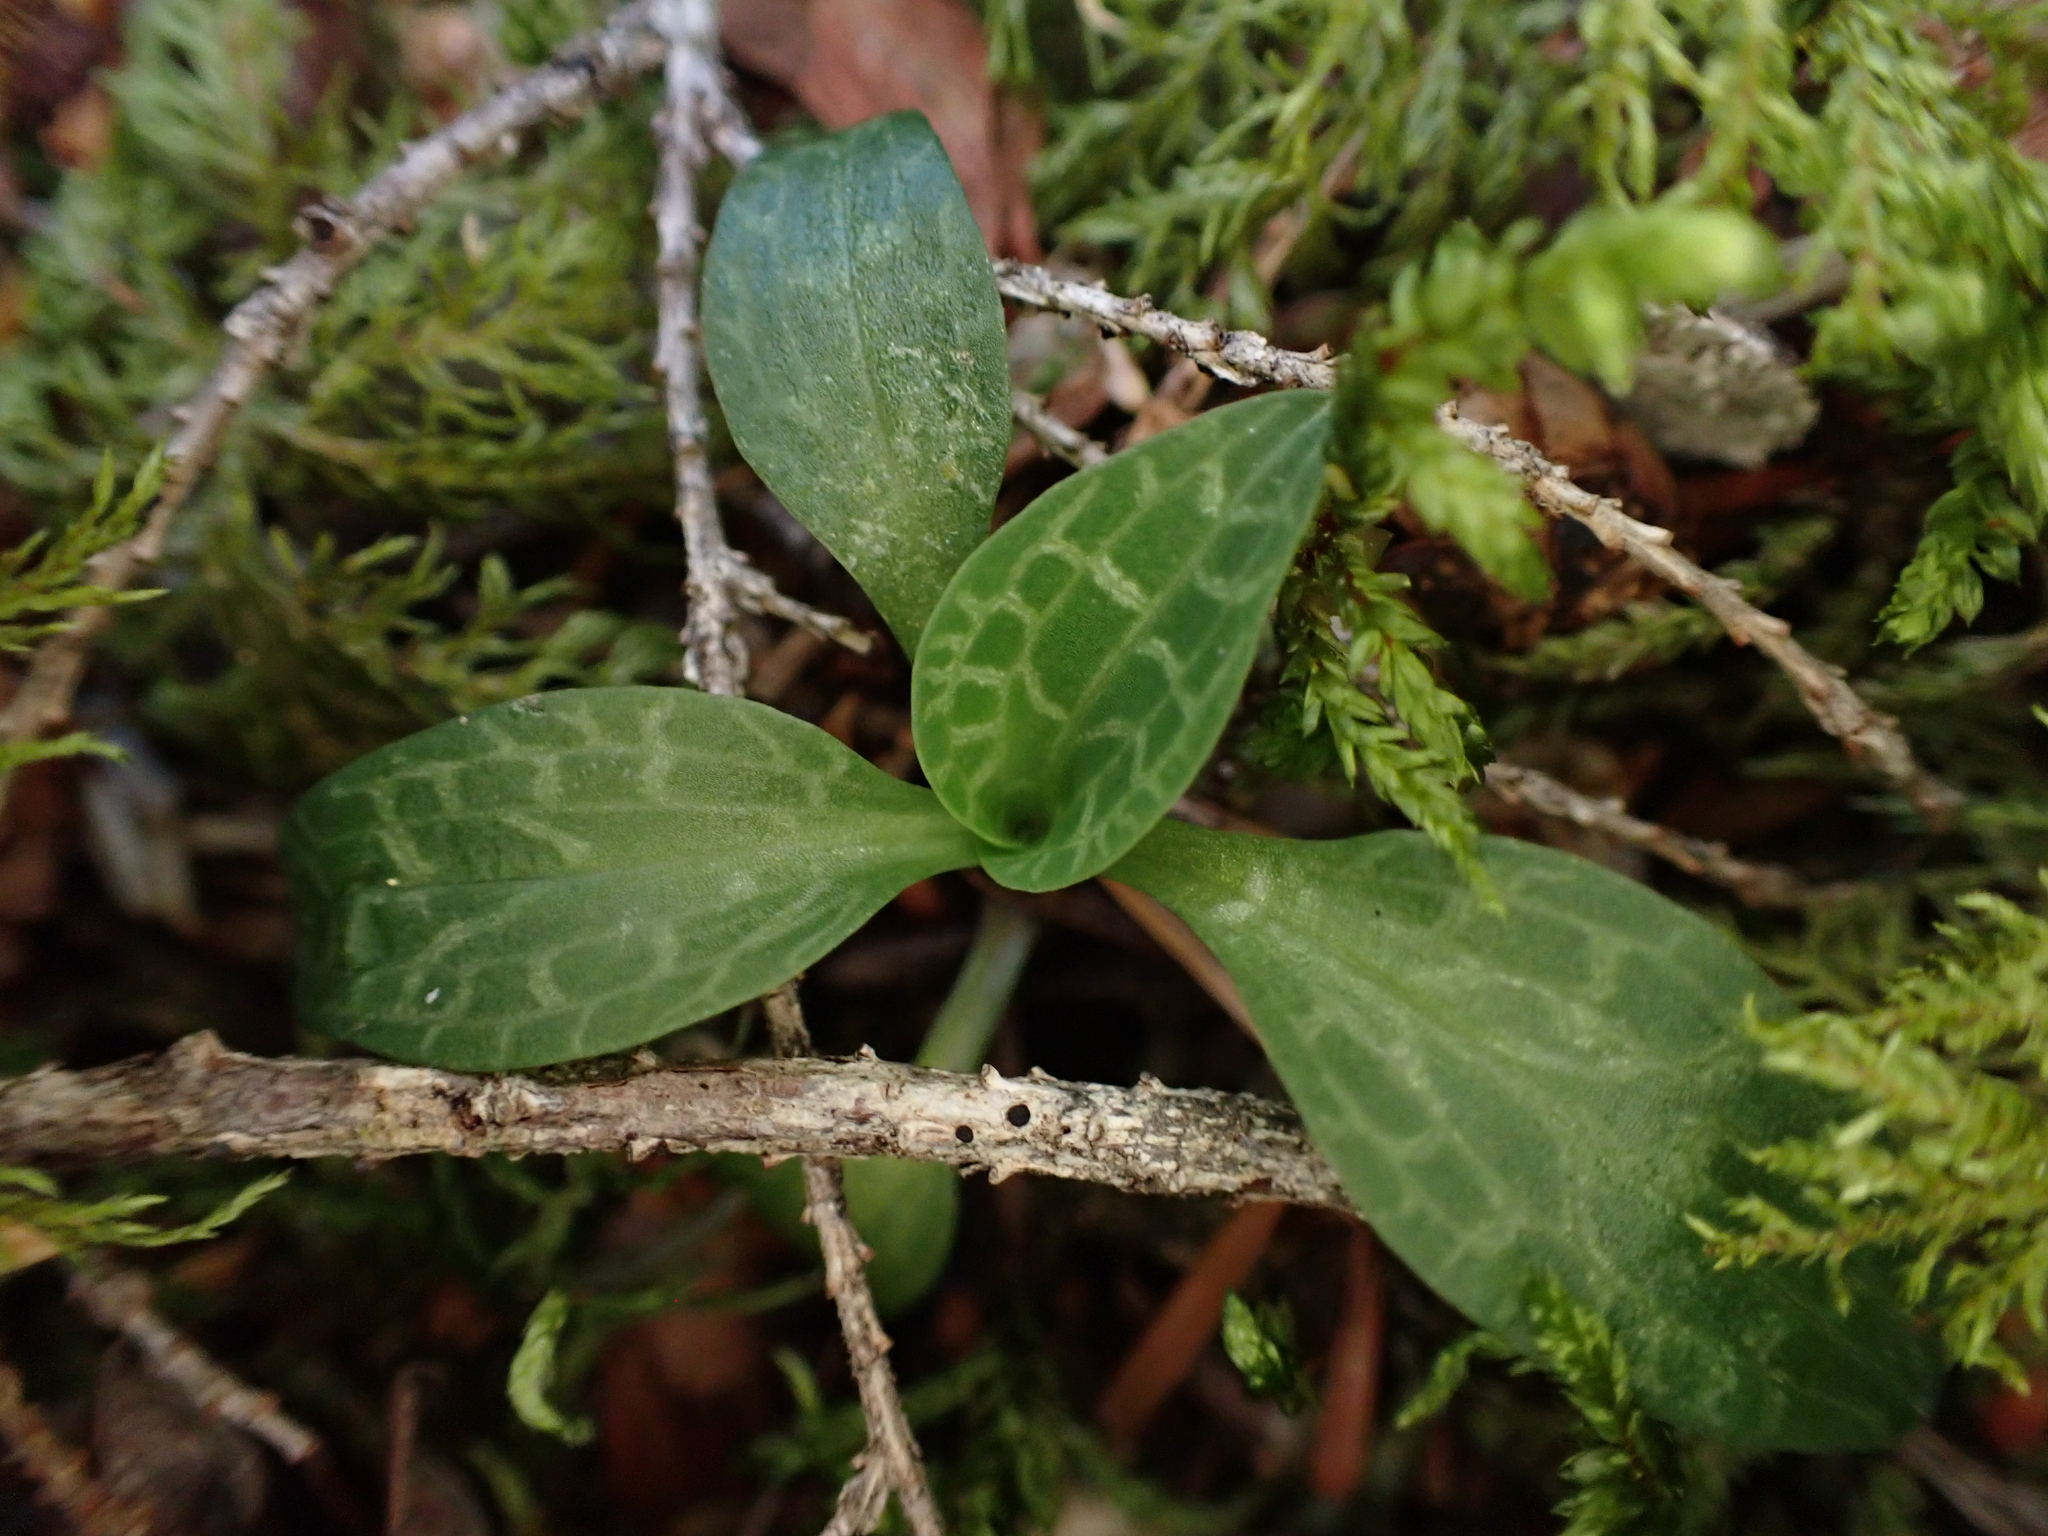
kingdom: Plantae
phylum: Tracheophyta
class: Liliopsida
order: Asparagales
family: Orchidaceae
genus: Goodyera
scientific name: Goodyera repens
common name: Creeping lady's-tresses
